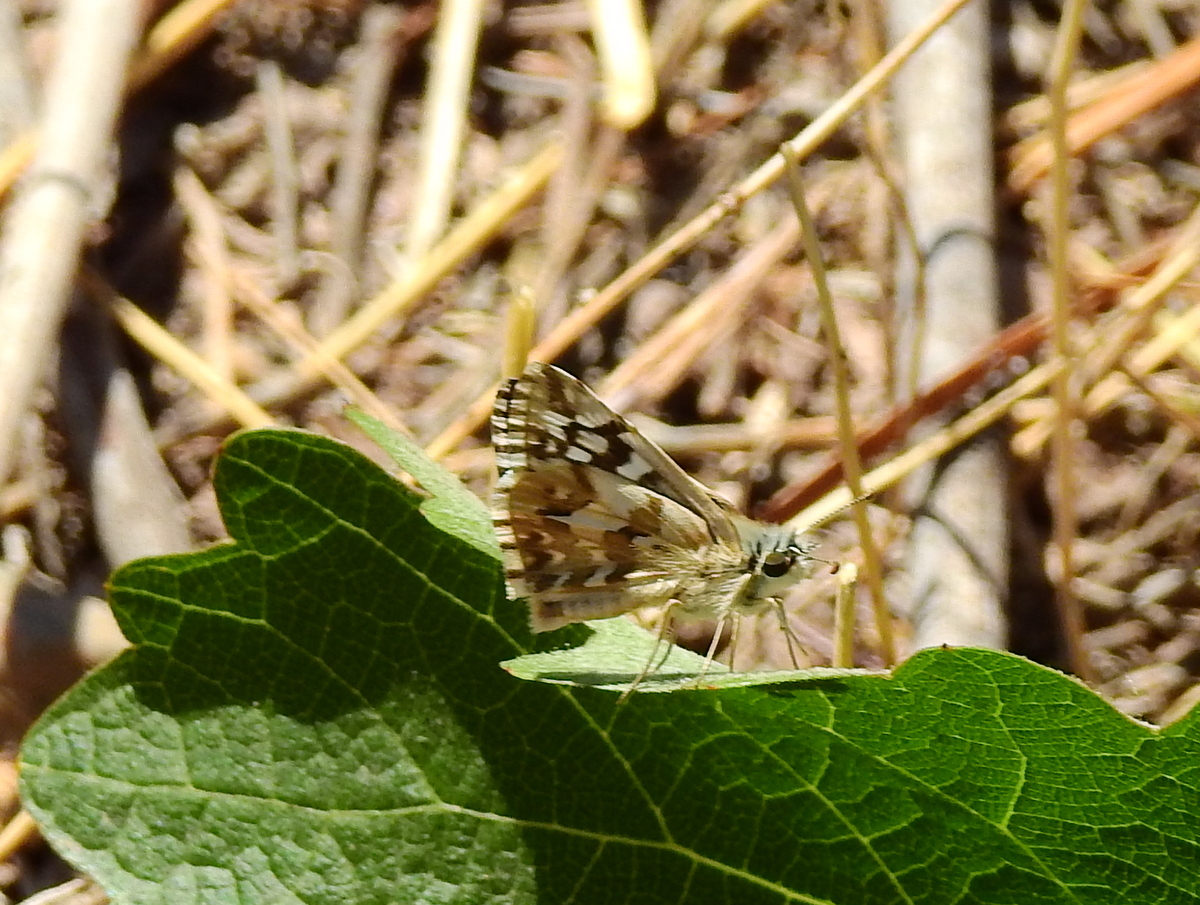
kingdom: Animalia
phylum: Arthropoda
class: Insecta
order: Lepidoptera
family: Hesperiidae
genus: Heliopetes
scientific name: Heliopetes americanus
